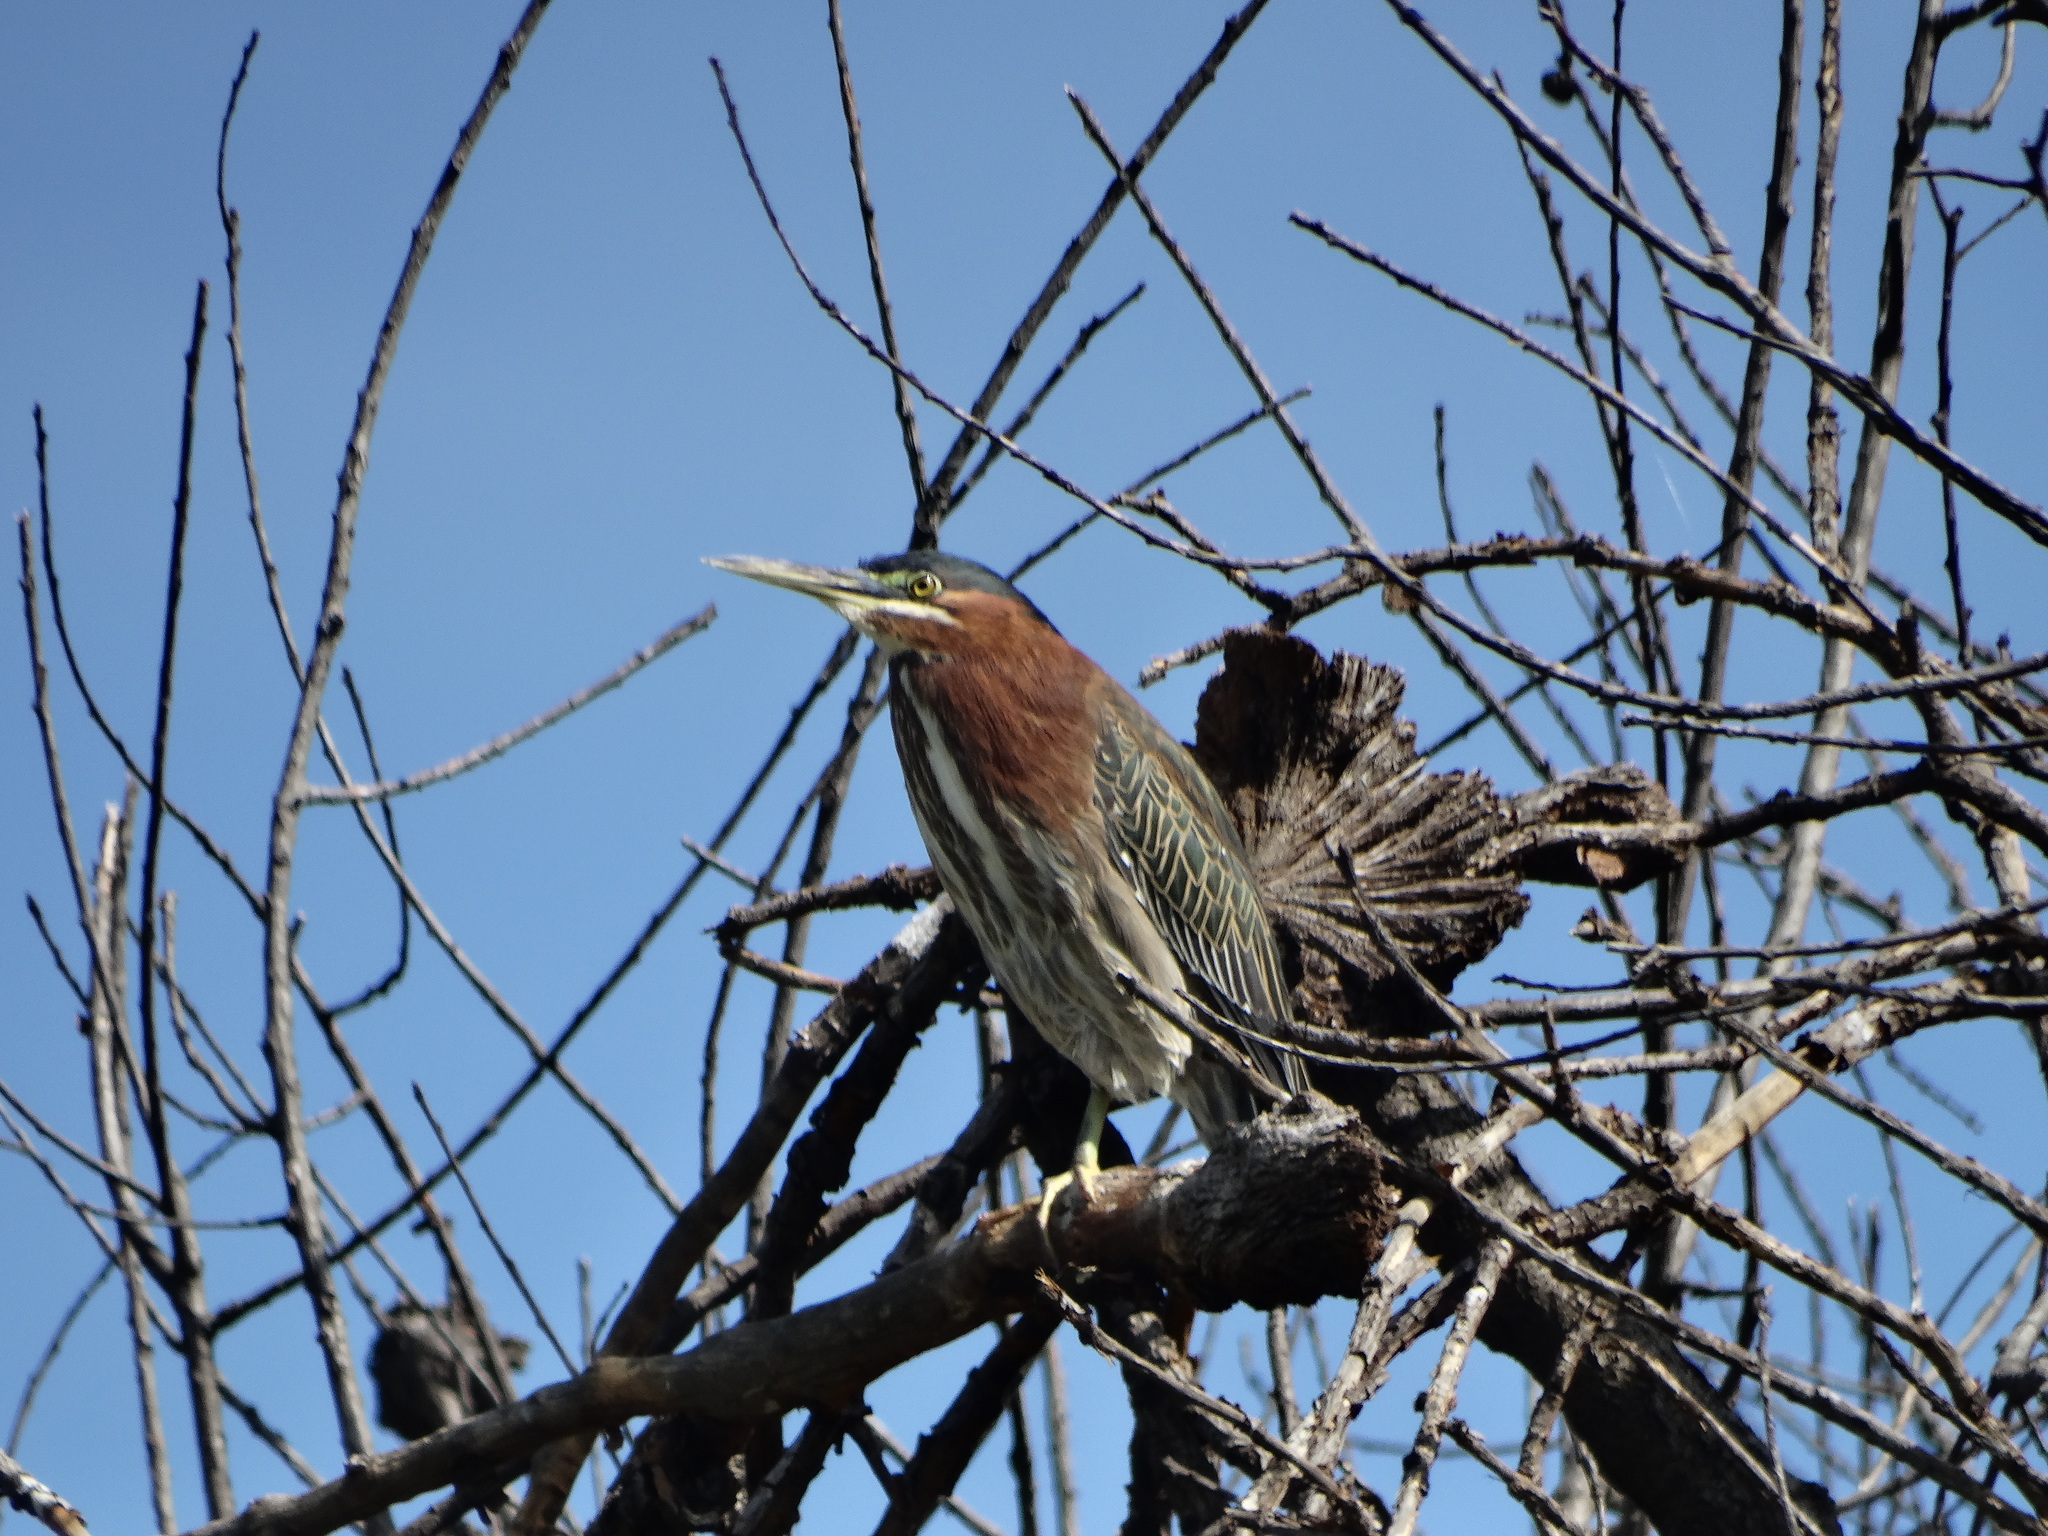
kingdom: Animalia
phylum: Chordata
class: Aves
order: Pelecaniformes
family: Ardeidae
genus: Butorides
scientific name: Butorides virescens
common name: Green heron
